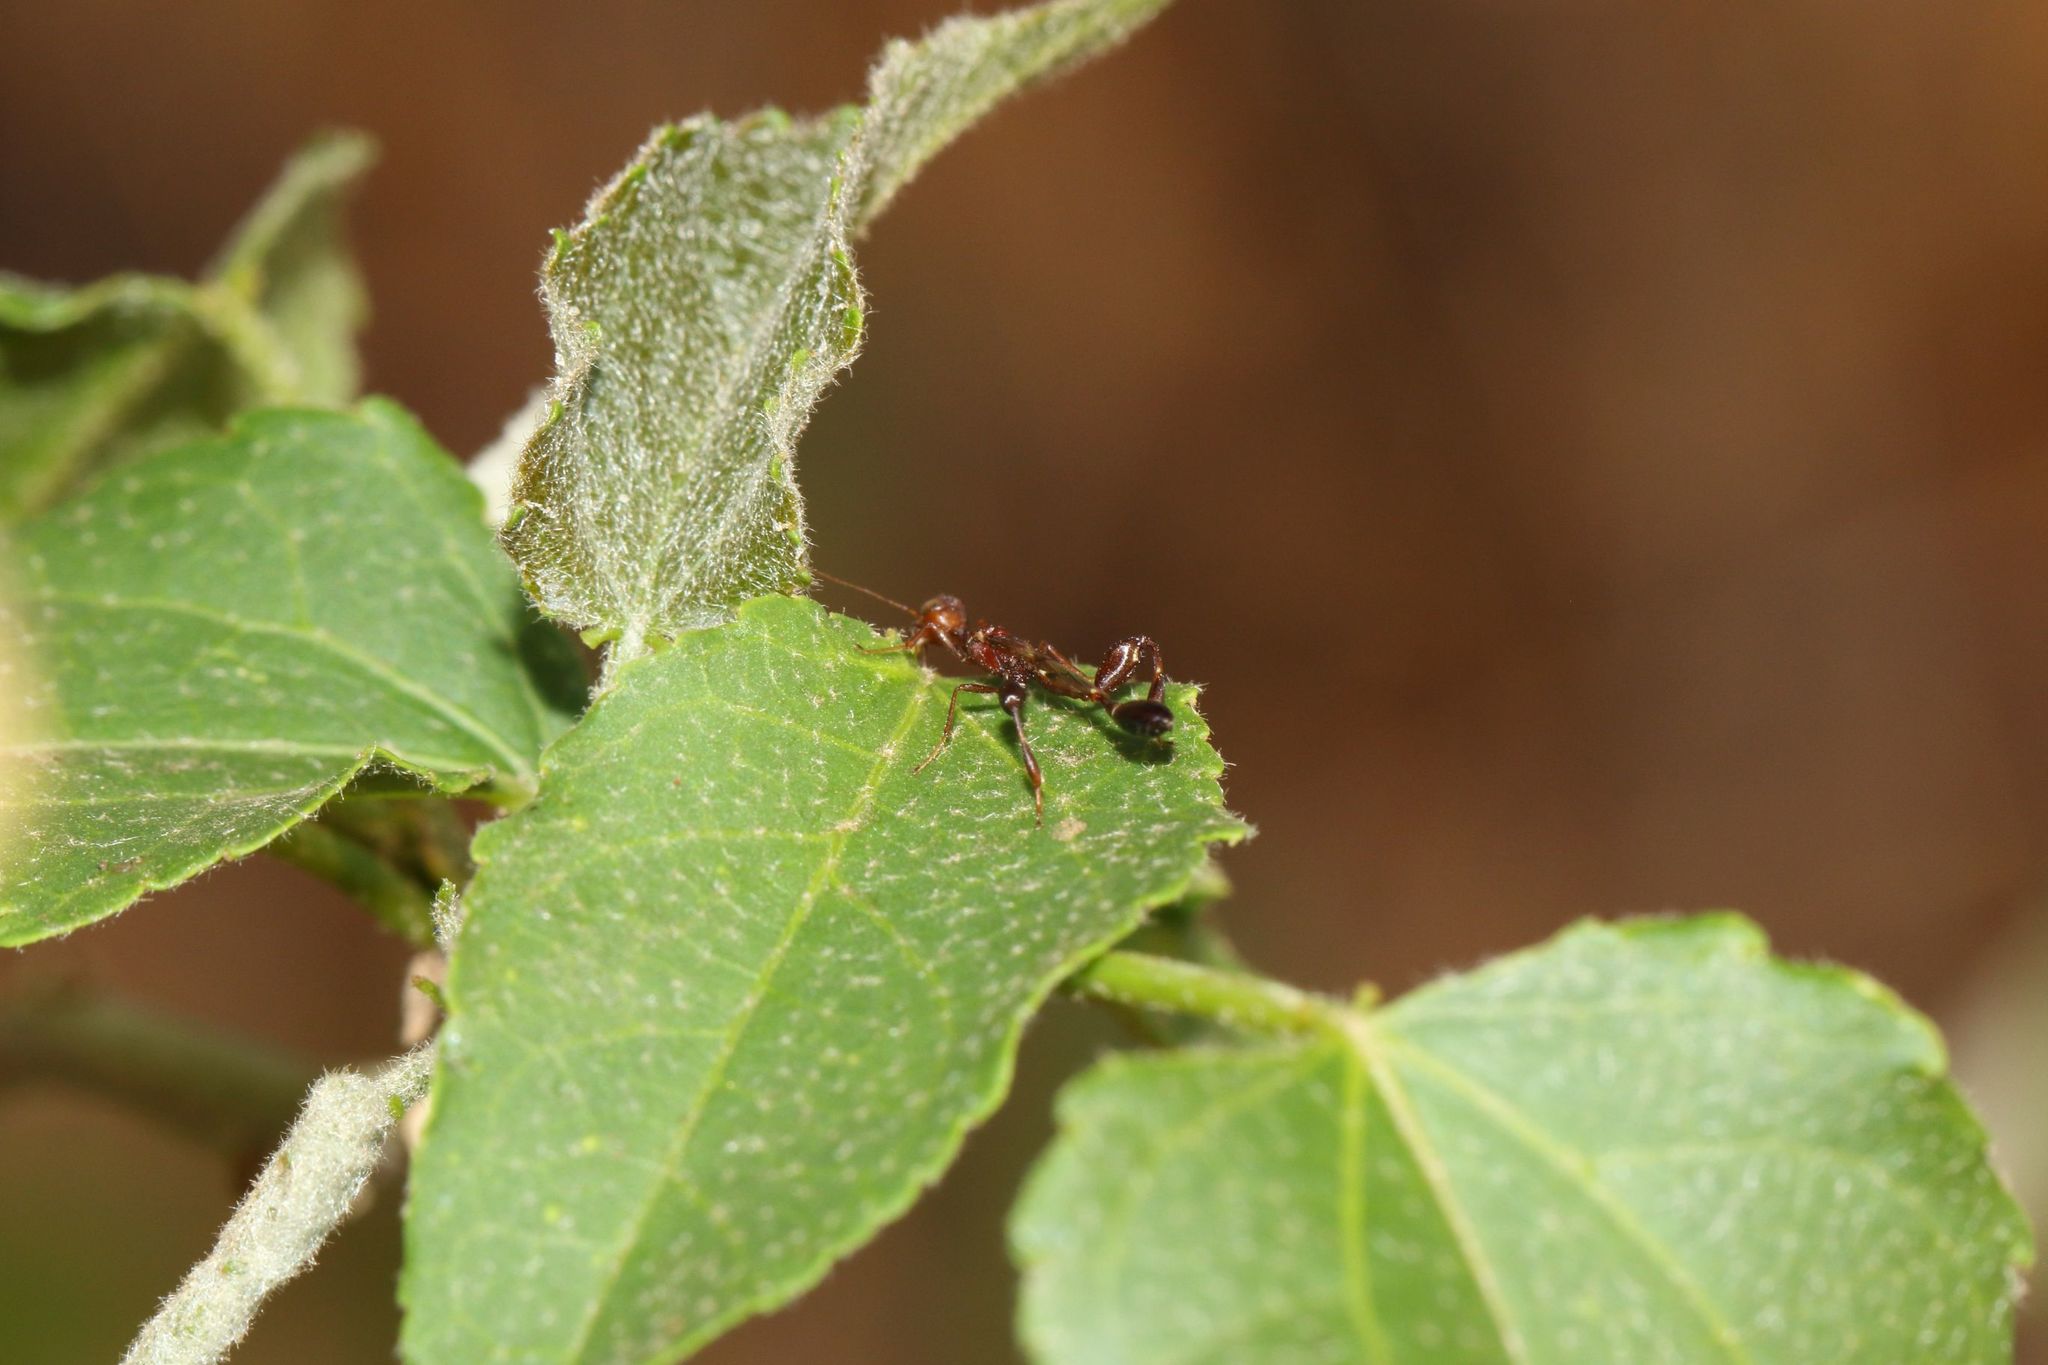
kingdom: Plantae
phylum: Tracheophyta
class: Magnoliopsida
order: Malpighiales
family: Euphorbiaceae
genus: Croton
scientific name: Croton megalobotrys
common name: Large fever berry
